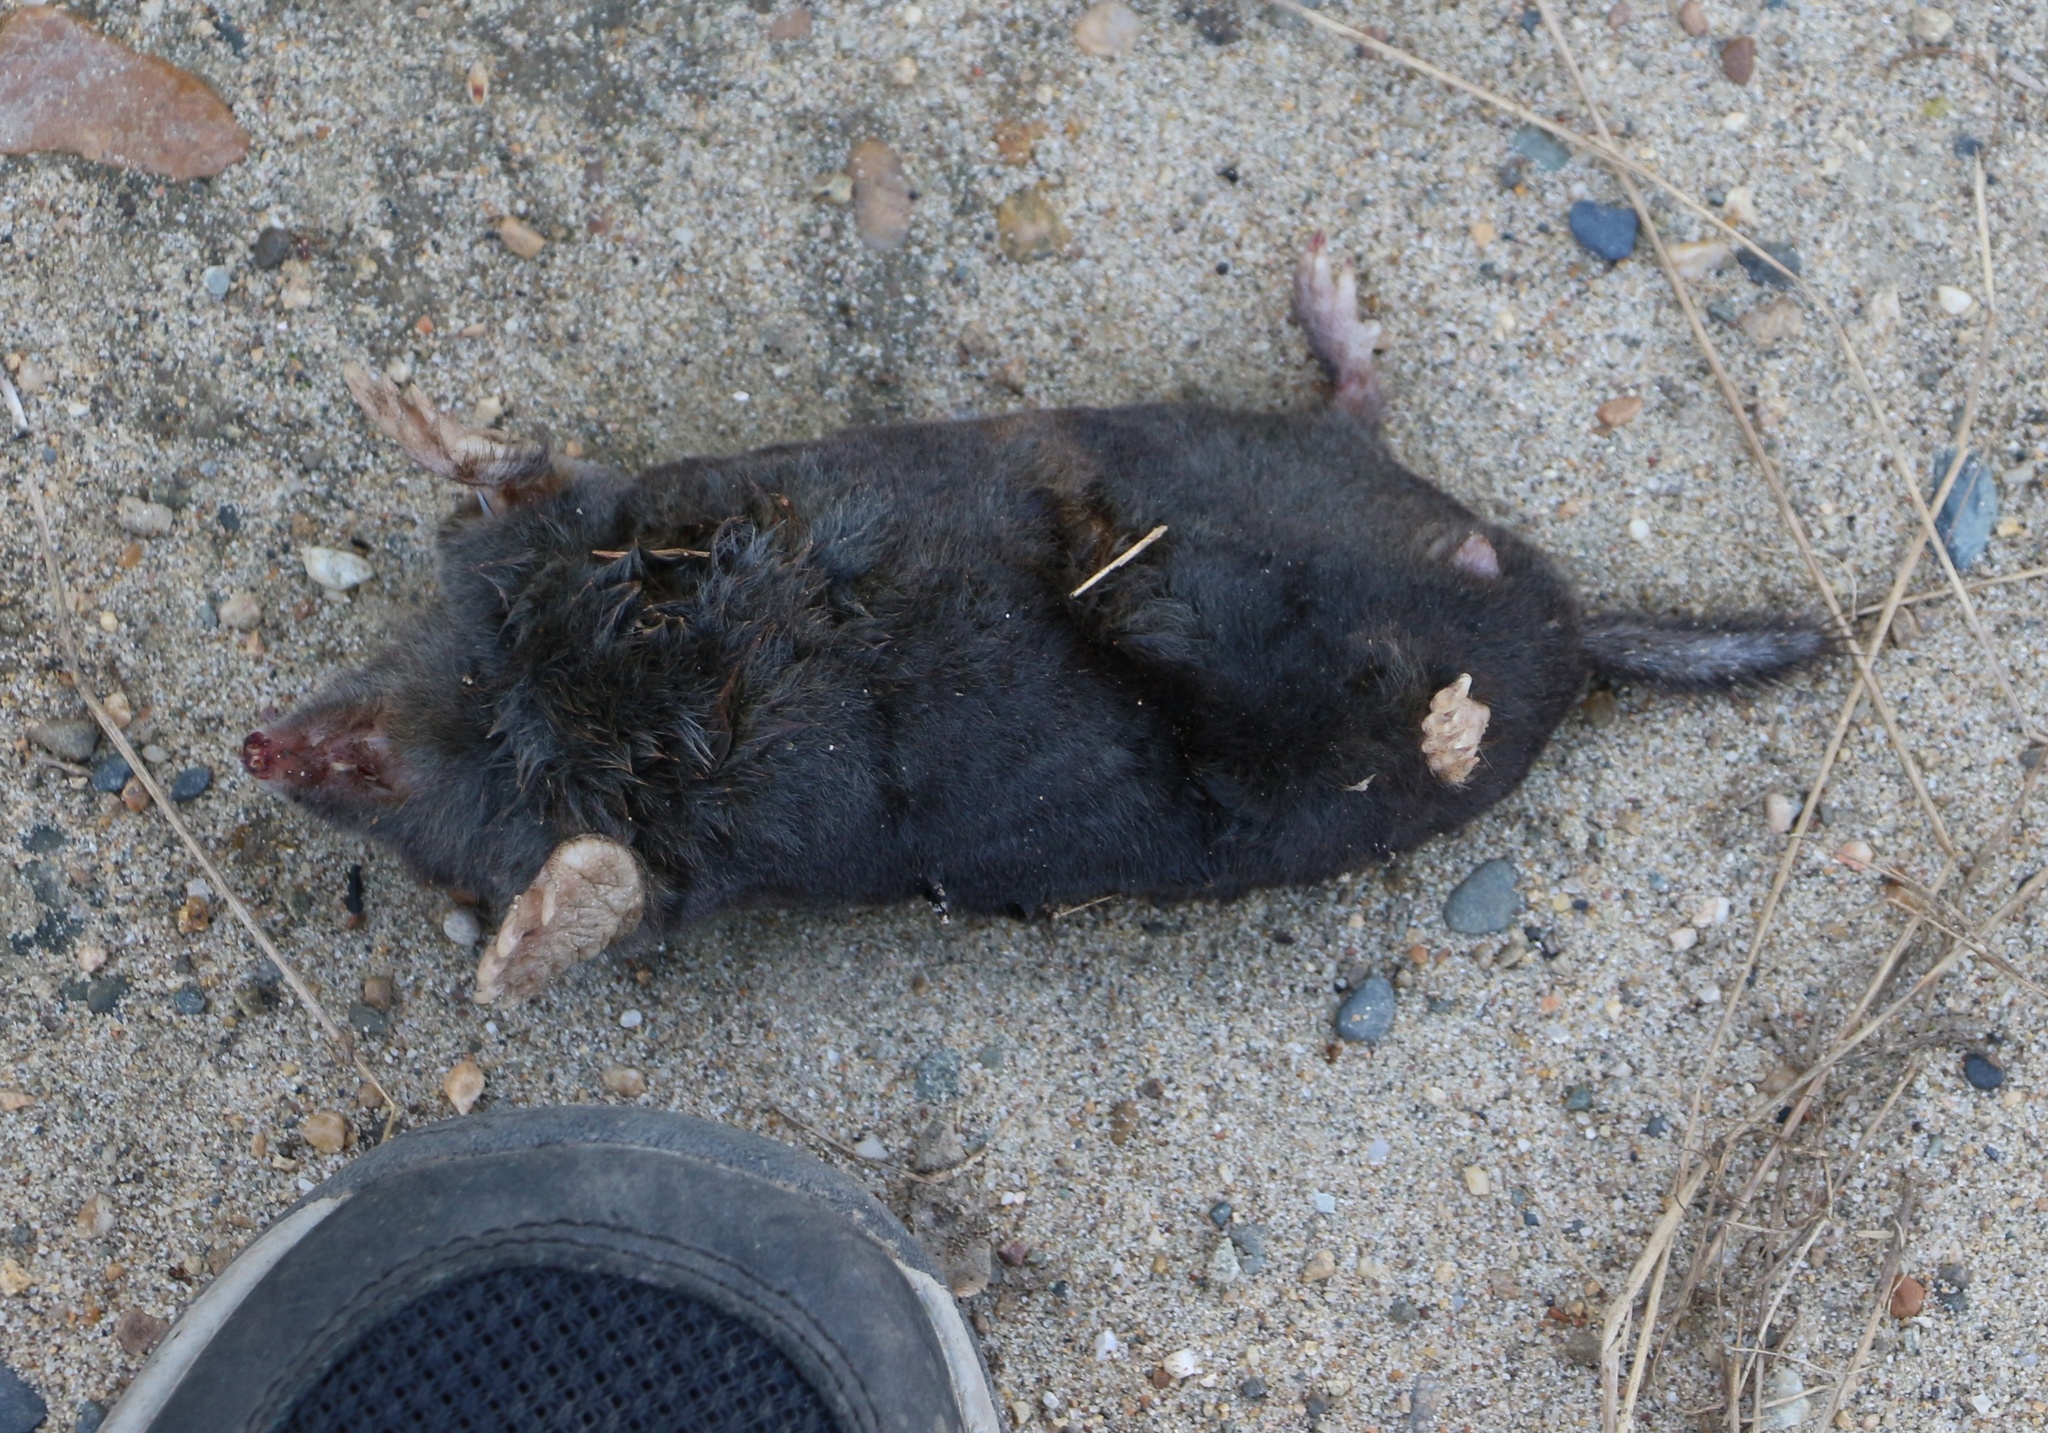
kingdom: Animalia
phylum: Chordata
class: Mammalia
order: Soricomorpha
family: Talpidae
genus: Talpa
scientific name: Talpa caucasica
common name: Caucasian mole
